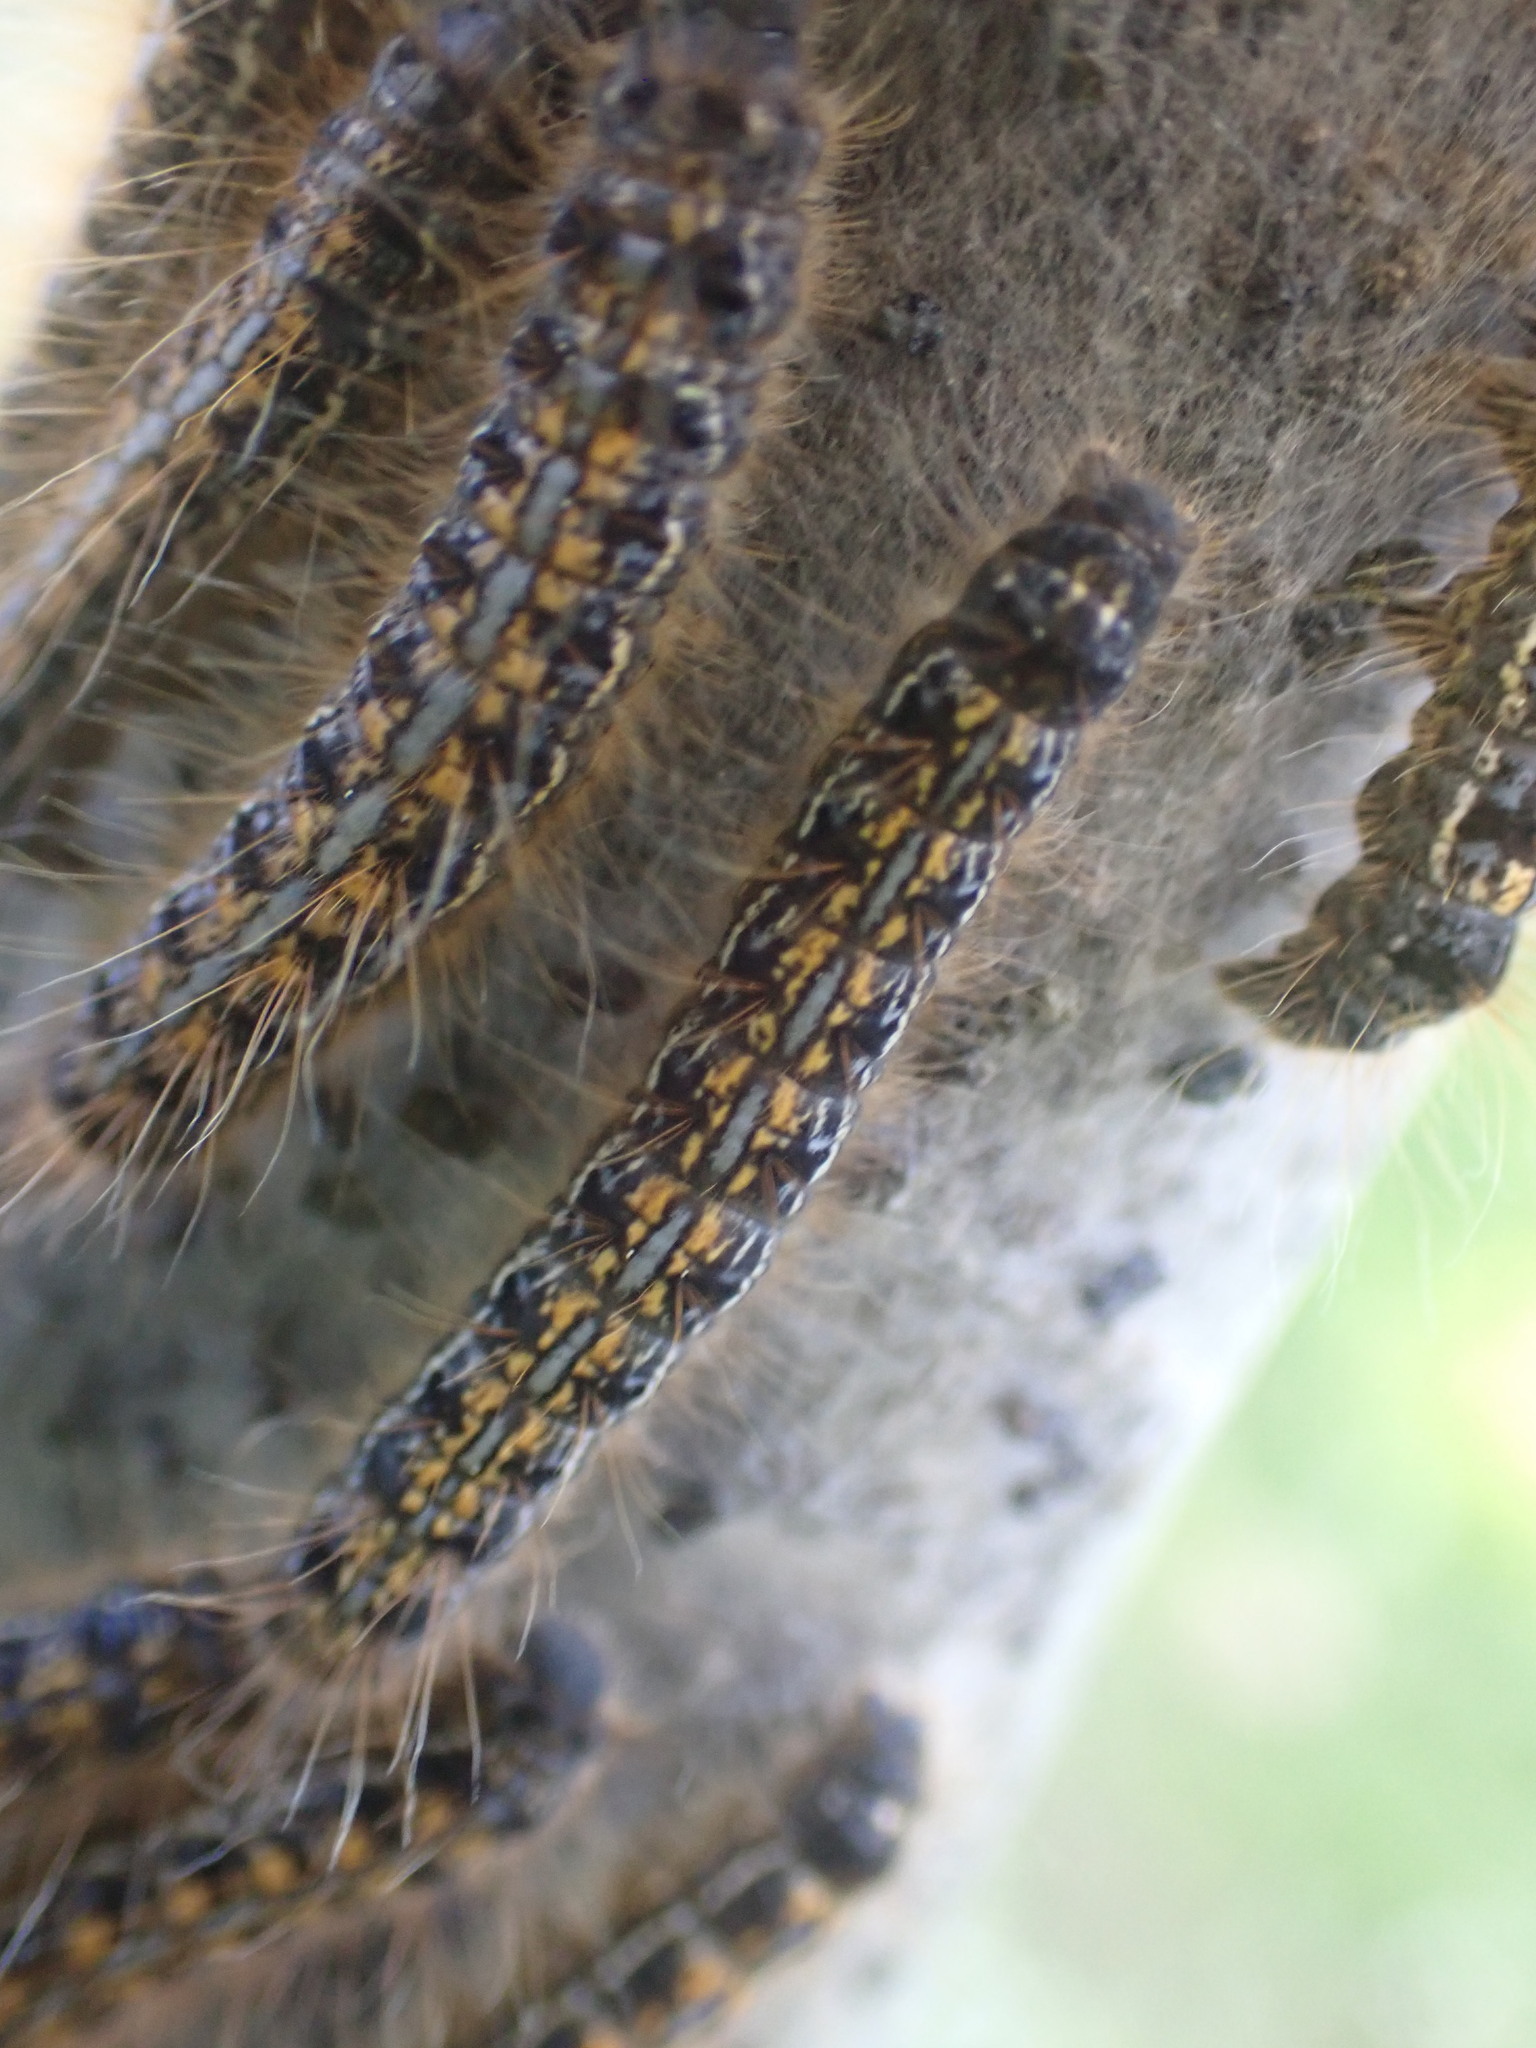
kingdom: Animalia
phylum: Arthropoda
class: Insecta
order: Lepidoptera
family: Lasiocampidae
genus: Malacosoma
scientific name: Malacosoma californica
